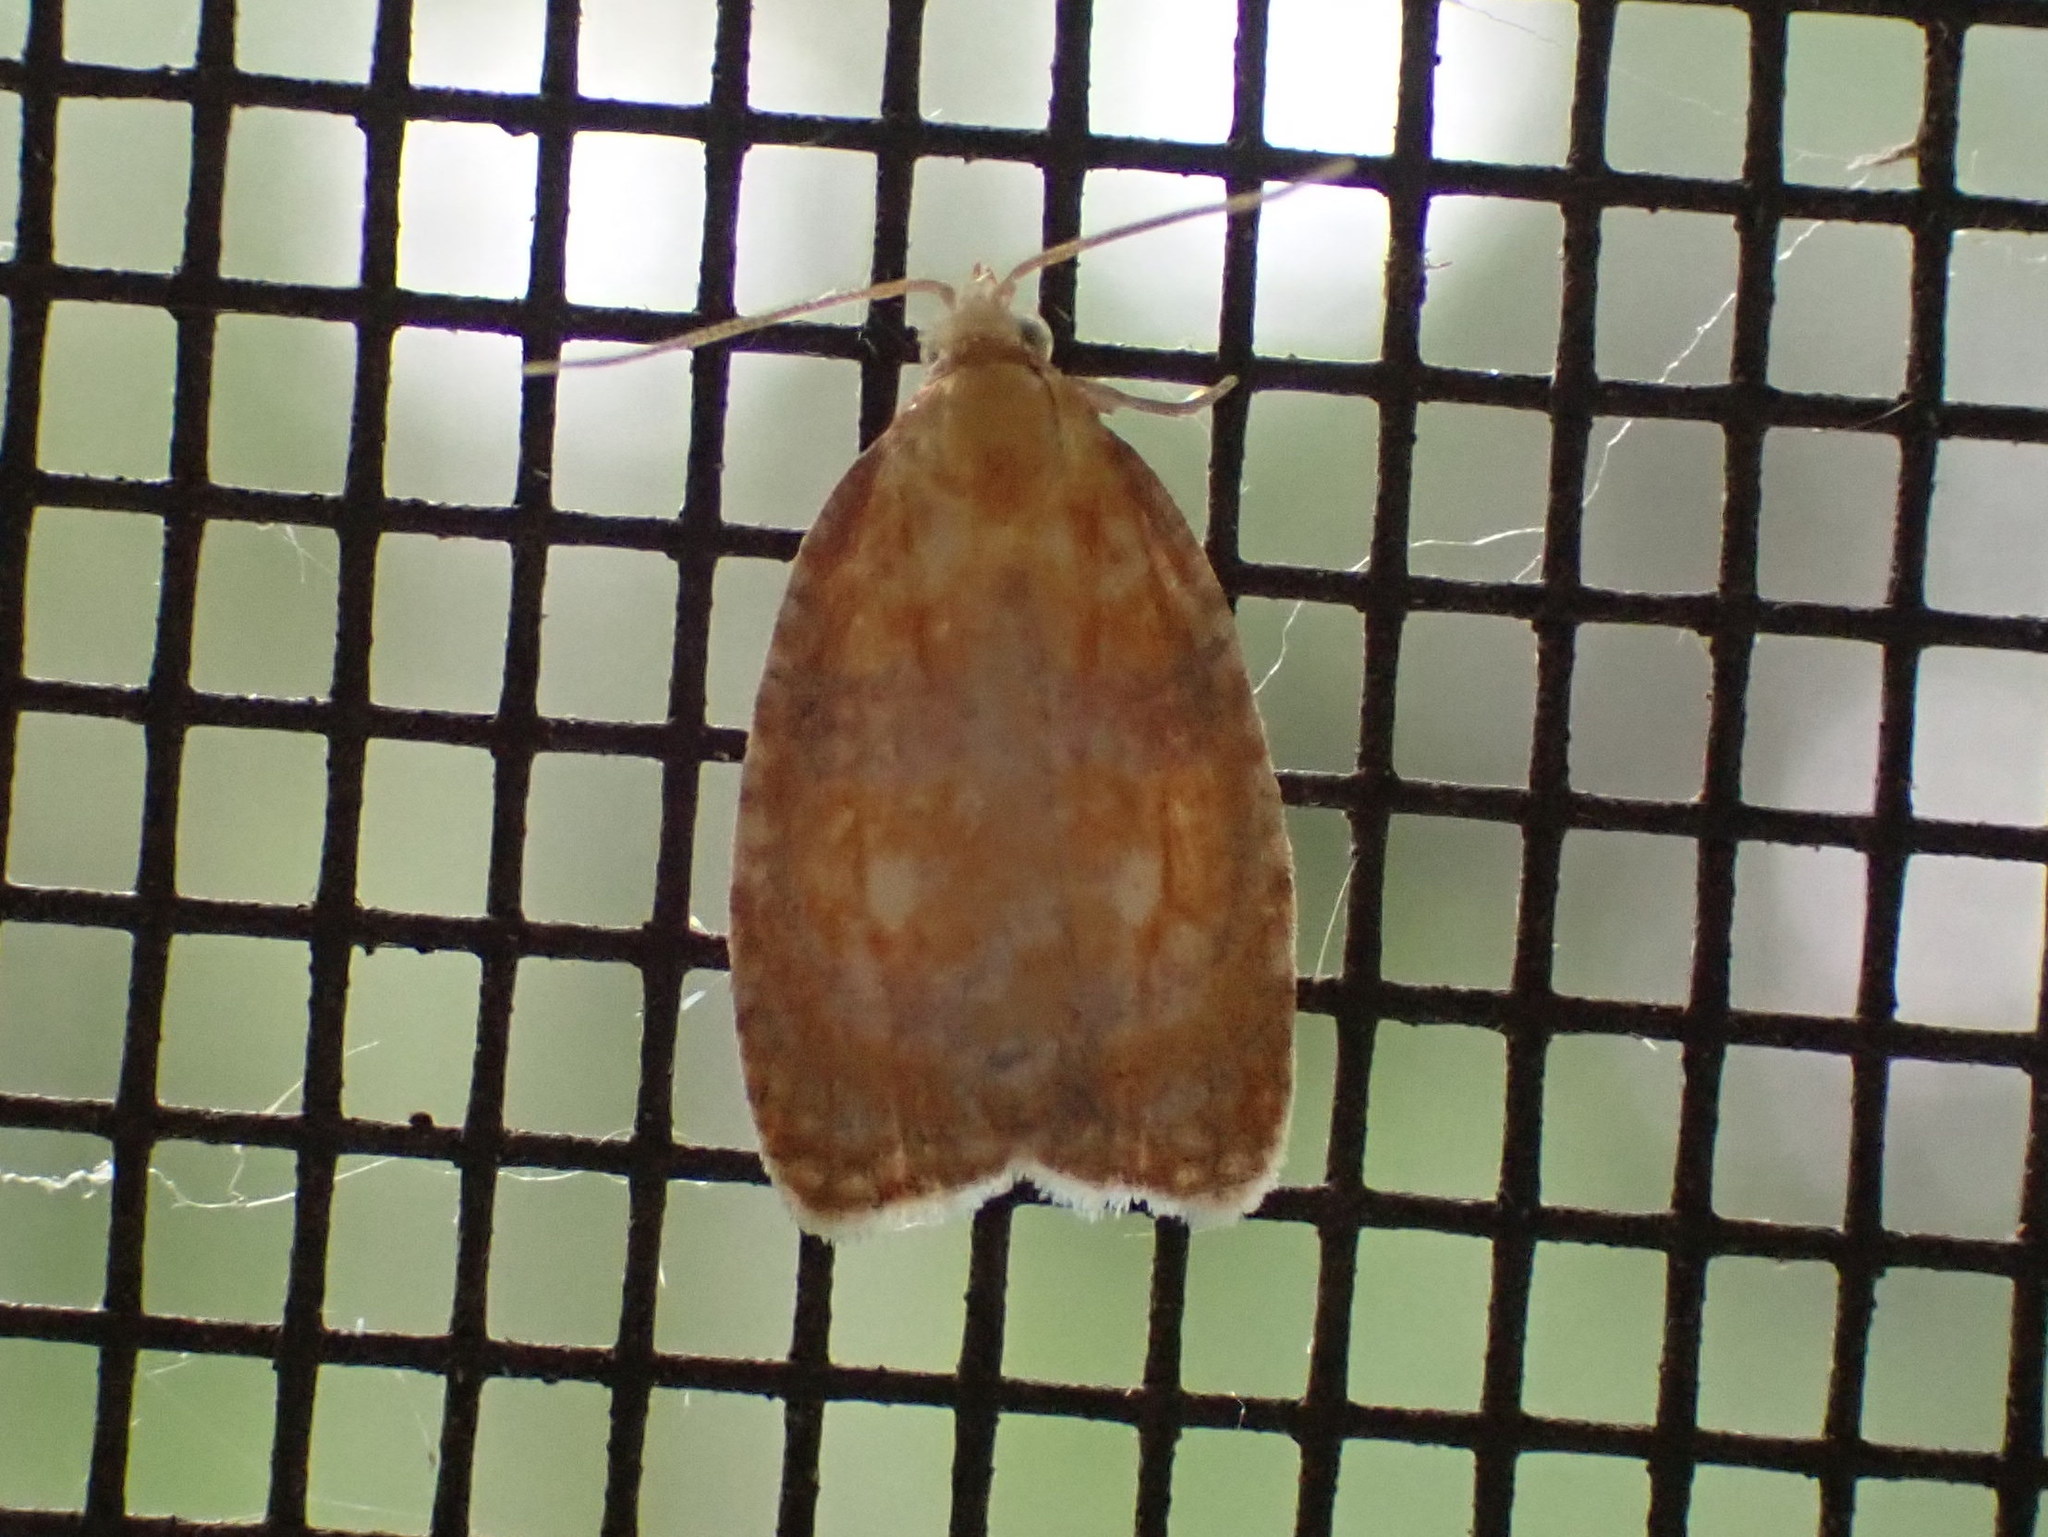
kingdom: Animalia
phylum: Arthropoda
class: Insecta
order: Lepidoptera
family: Tortricidae
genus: Acleris
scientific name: Acleris curvalana
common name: Blueberry leaftier moth
